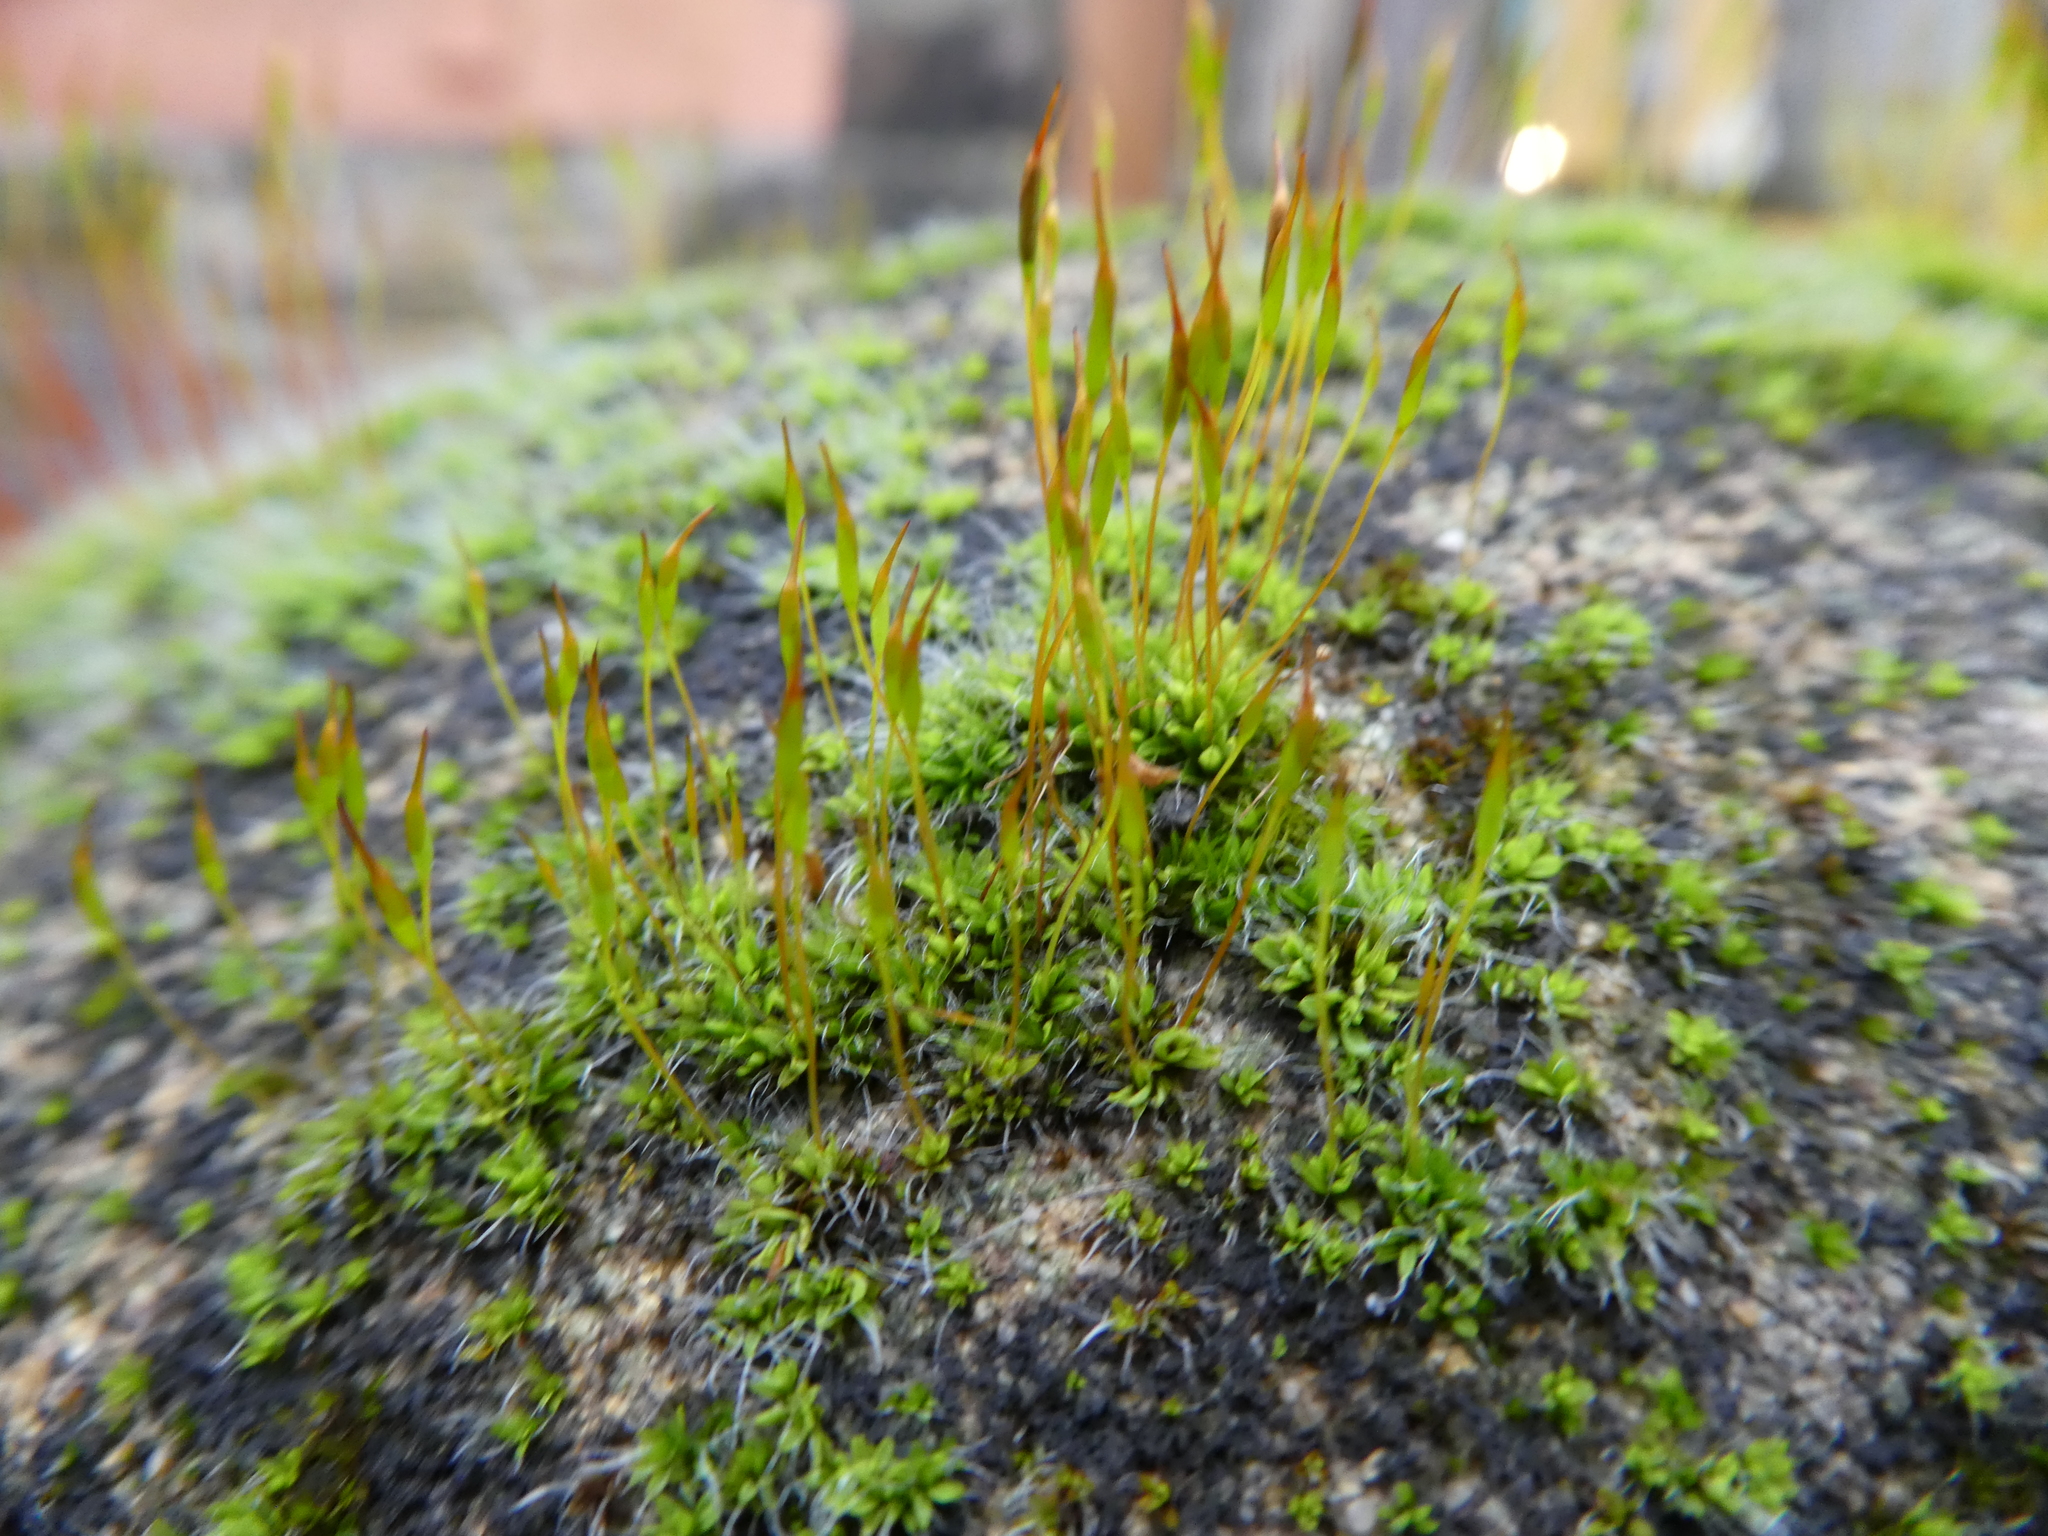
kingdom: Plantae
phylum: Bryophyta
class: Bryopsida
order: Pottiales
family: Pottiaceae
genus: Tortula
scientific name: Tortula muralis
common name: Wall screw-moss
